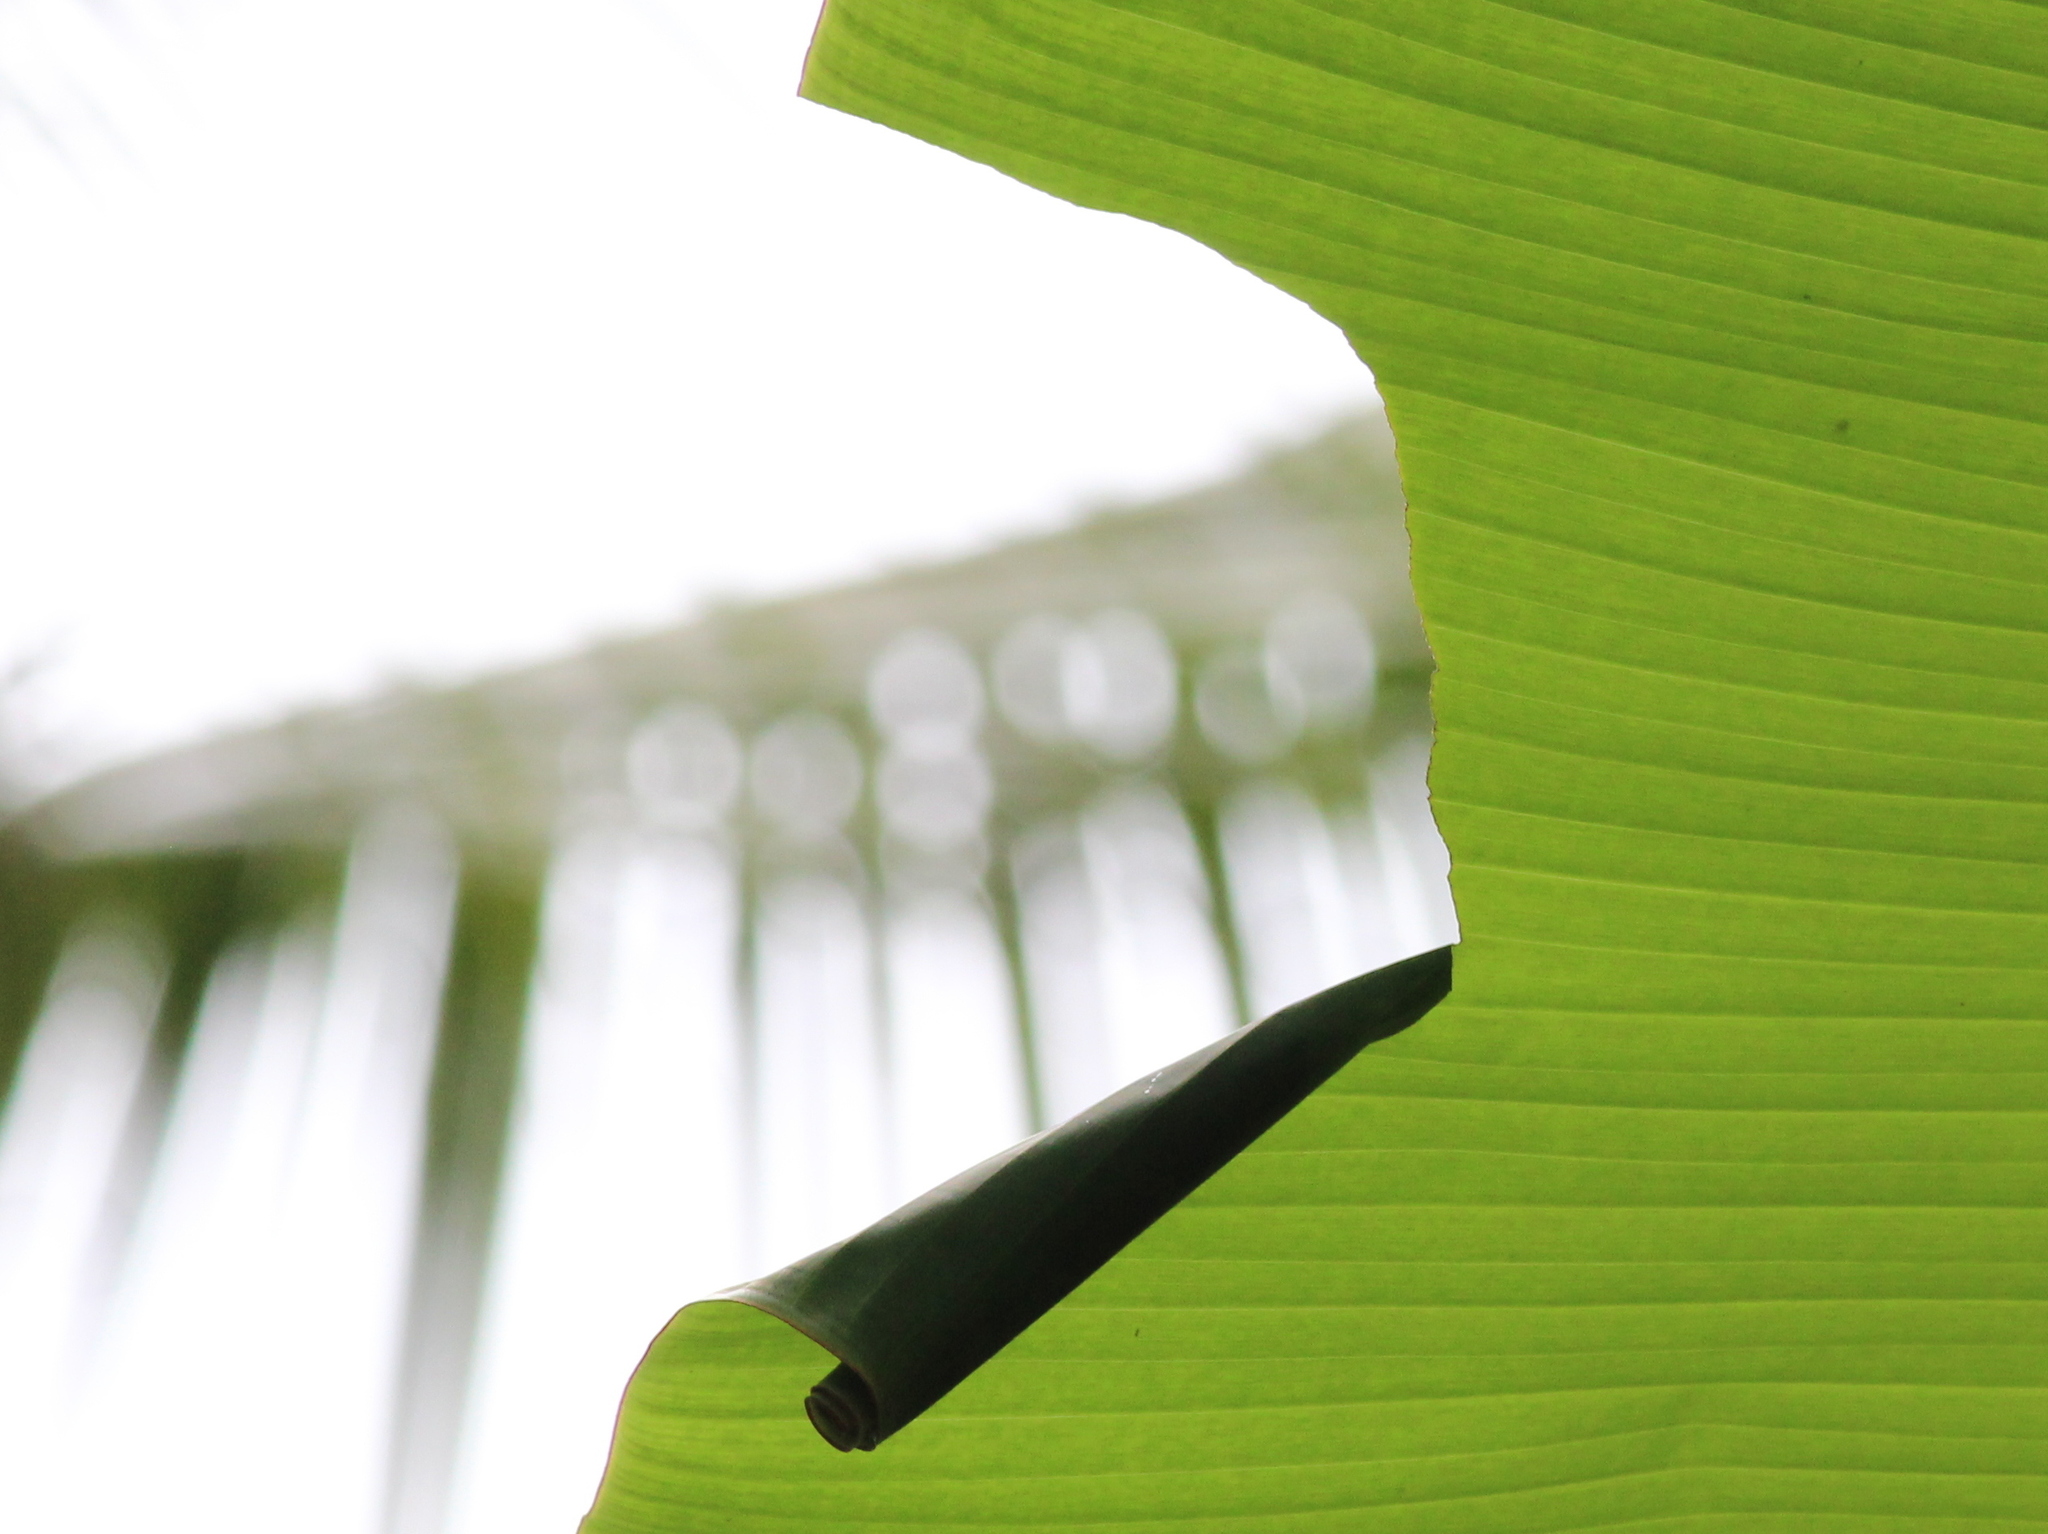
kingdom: Animalia
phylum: Arthropoda
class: Insecta
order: Lepidoptera
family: Hesperiidae
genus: Erionota
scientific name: Erionota torus
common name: Rounded palm-redeye
